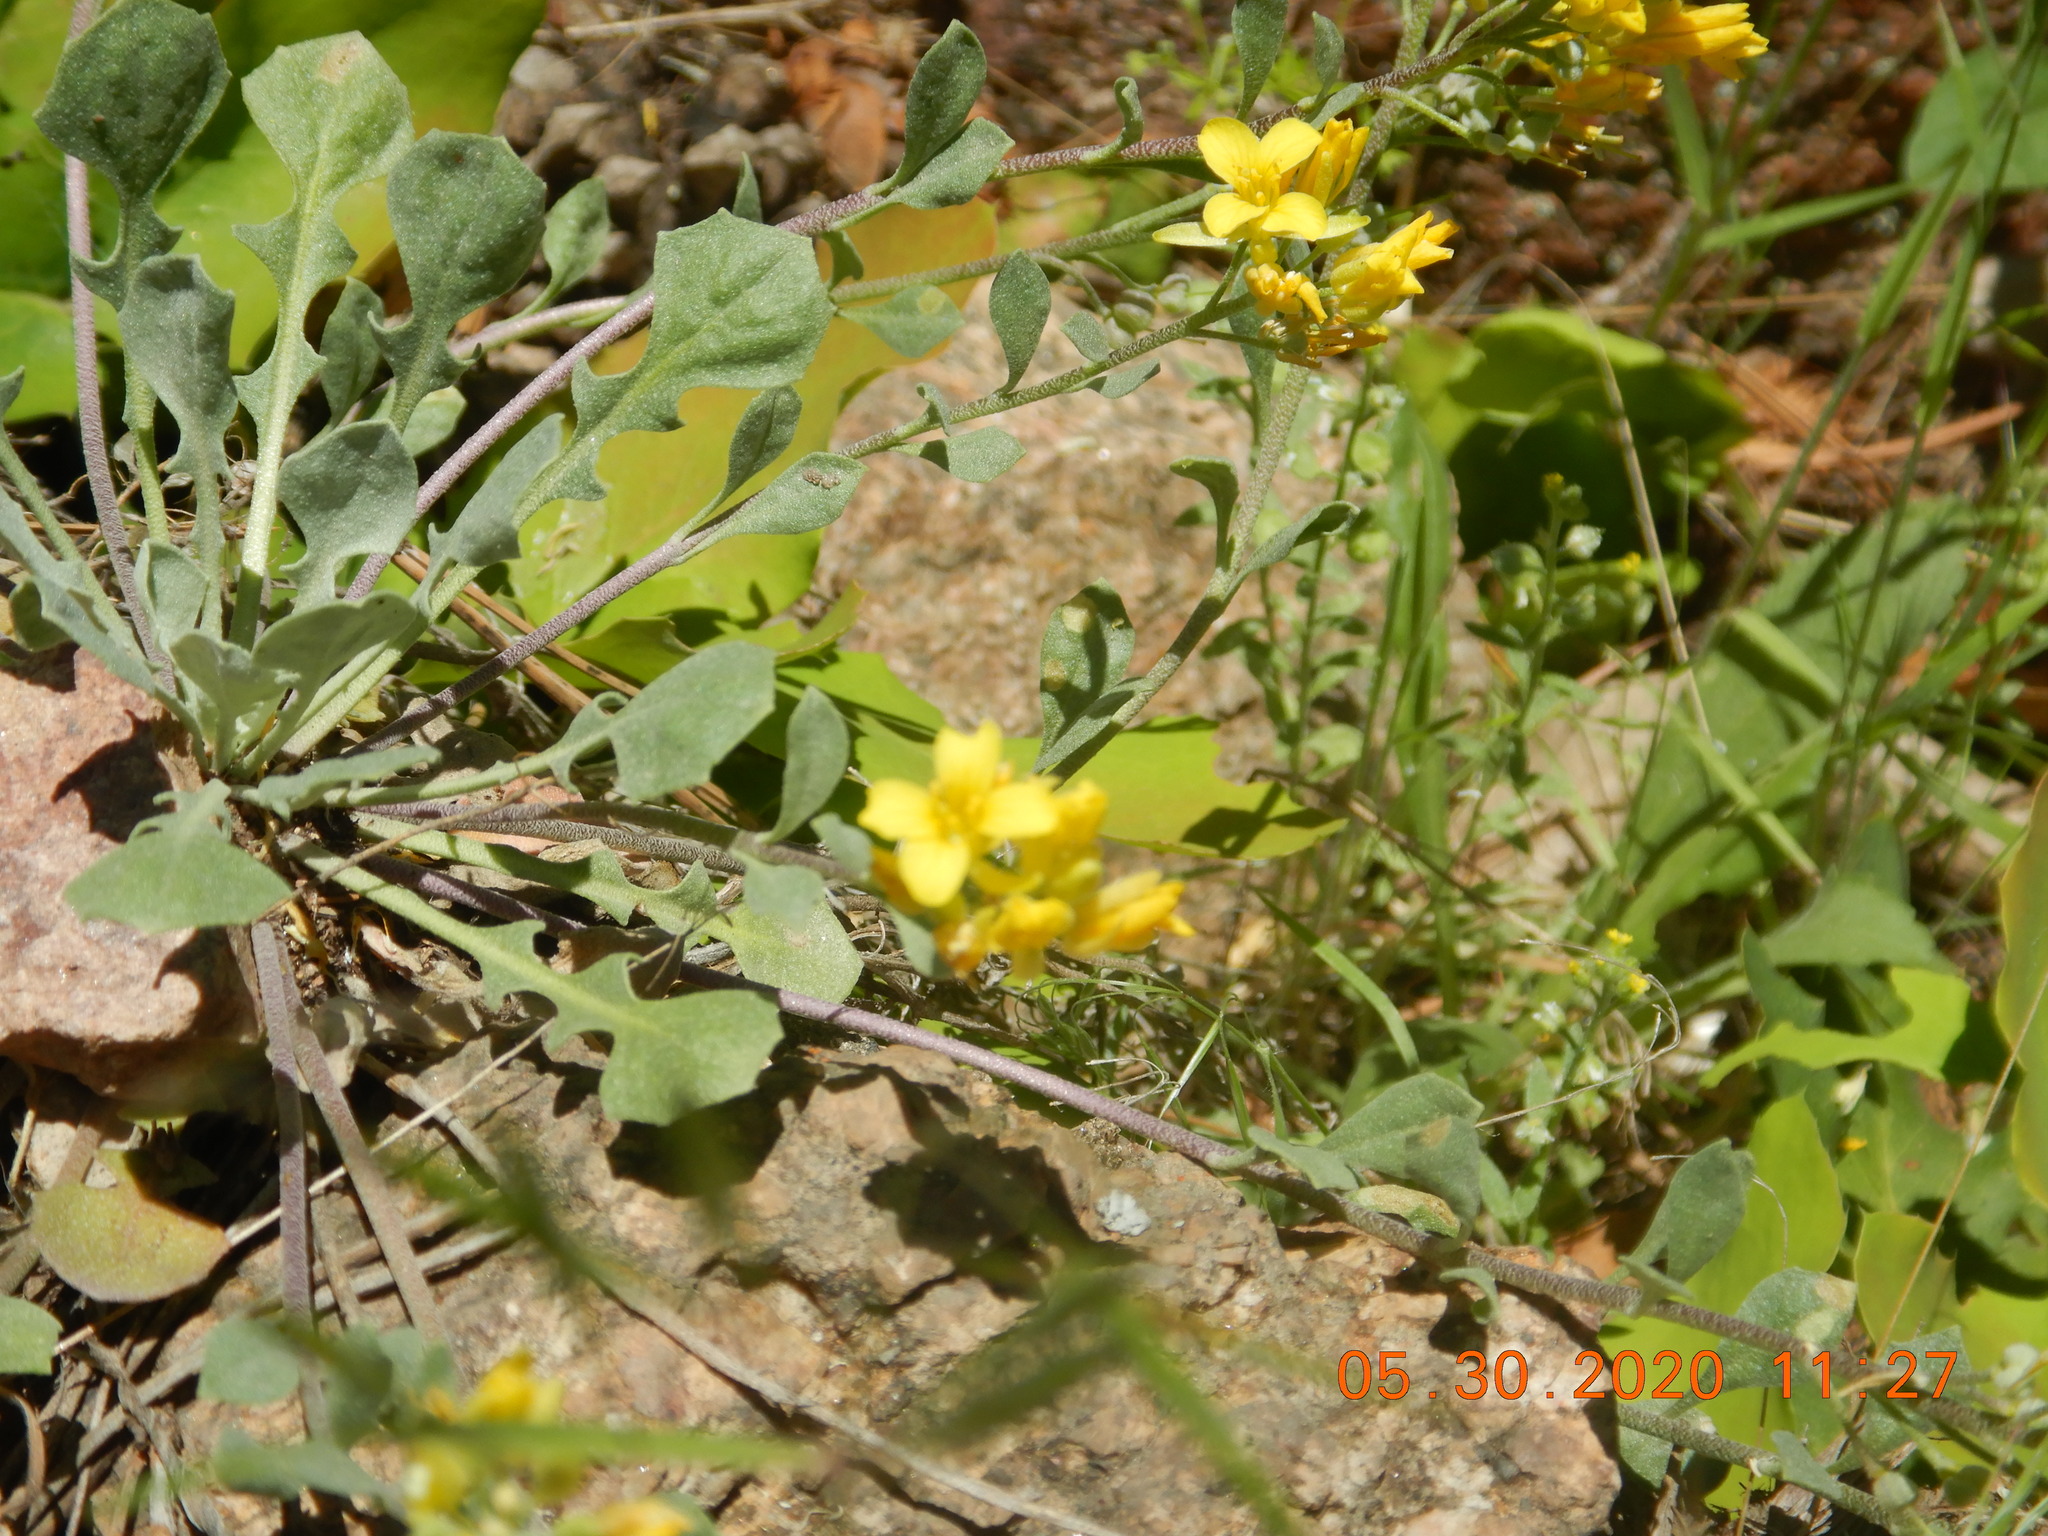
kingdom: Plantae
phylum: Tracheophyta
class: Magnoliopsida
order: Brassicales
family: Brassicaceae
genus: Physaria
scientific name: Physaria vitulifera
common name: Roundtrip twinpod
